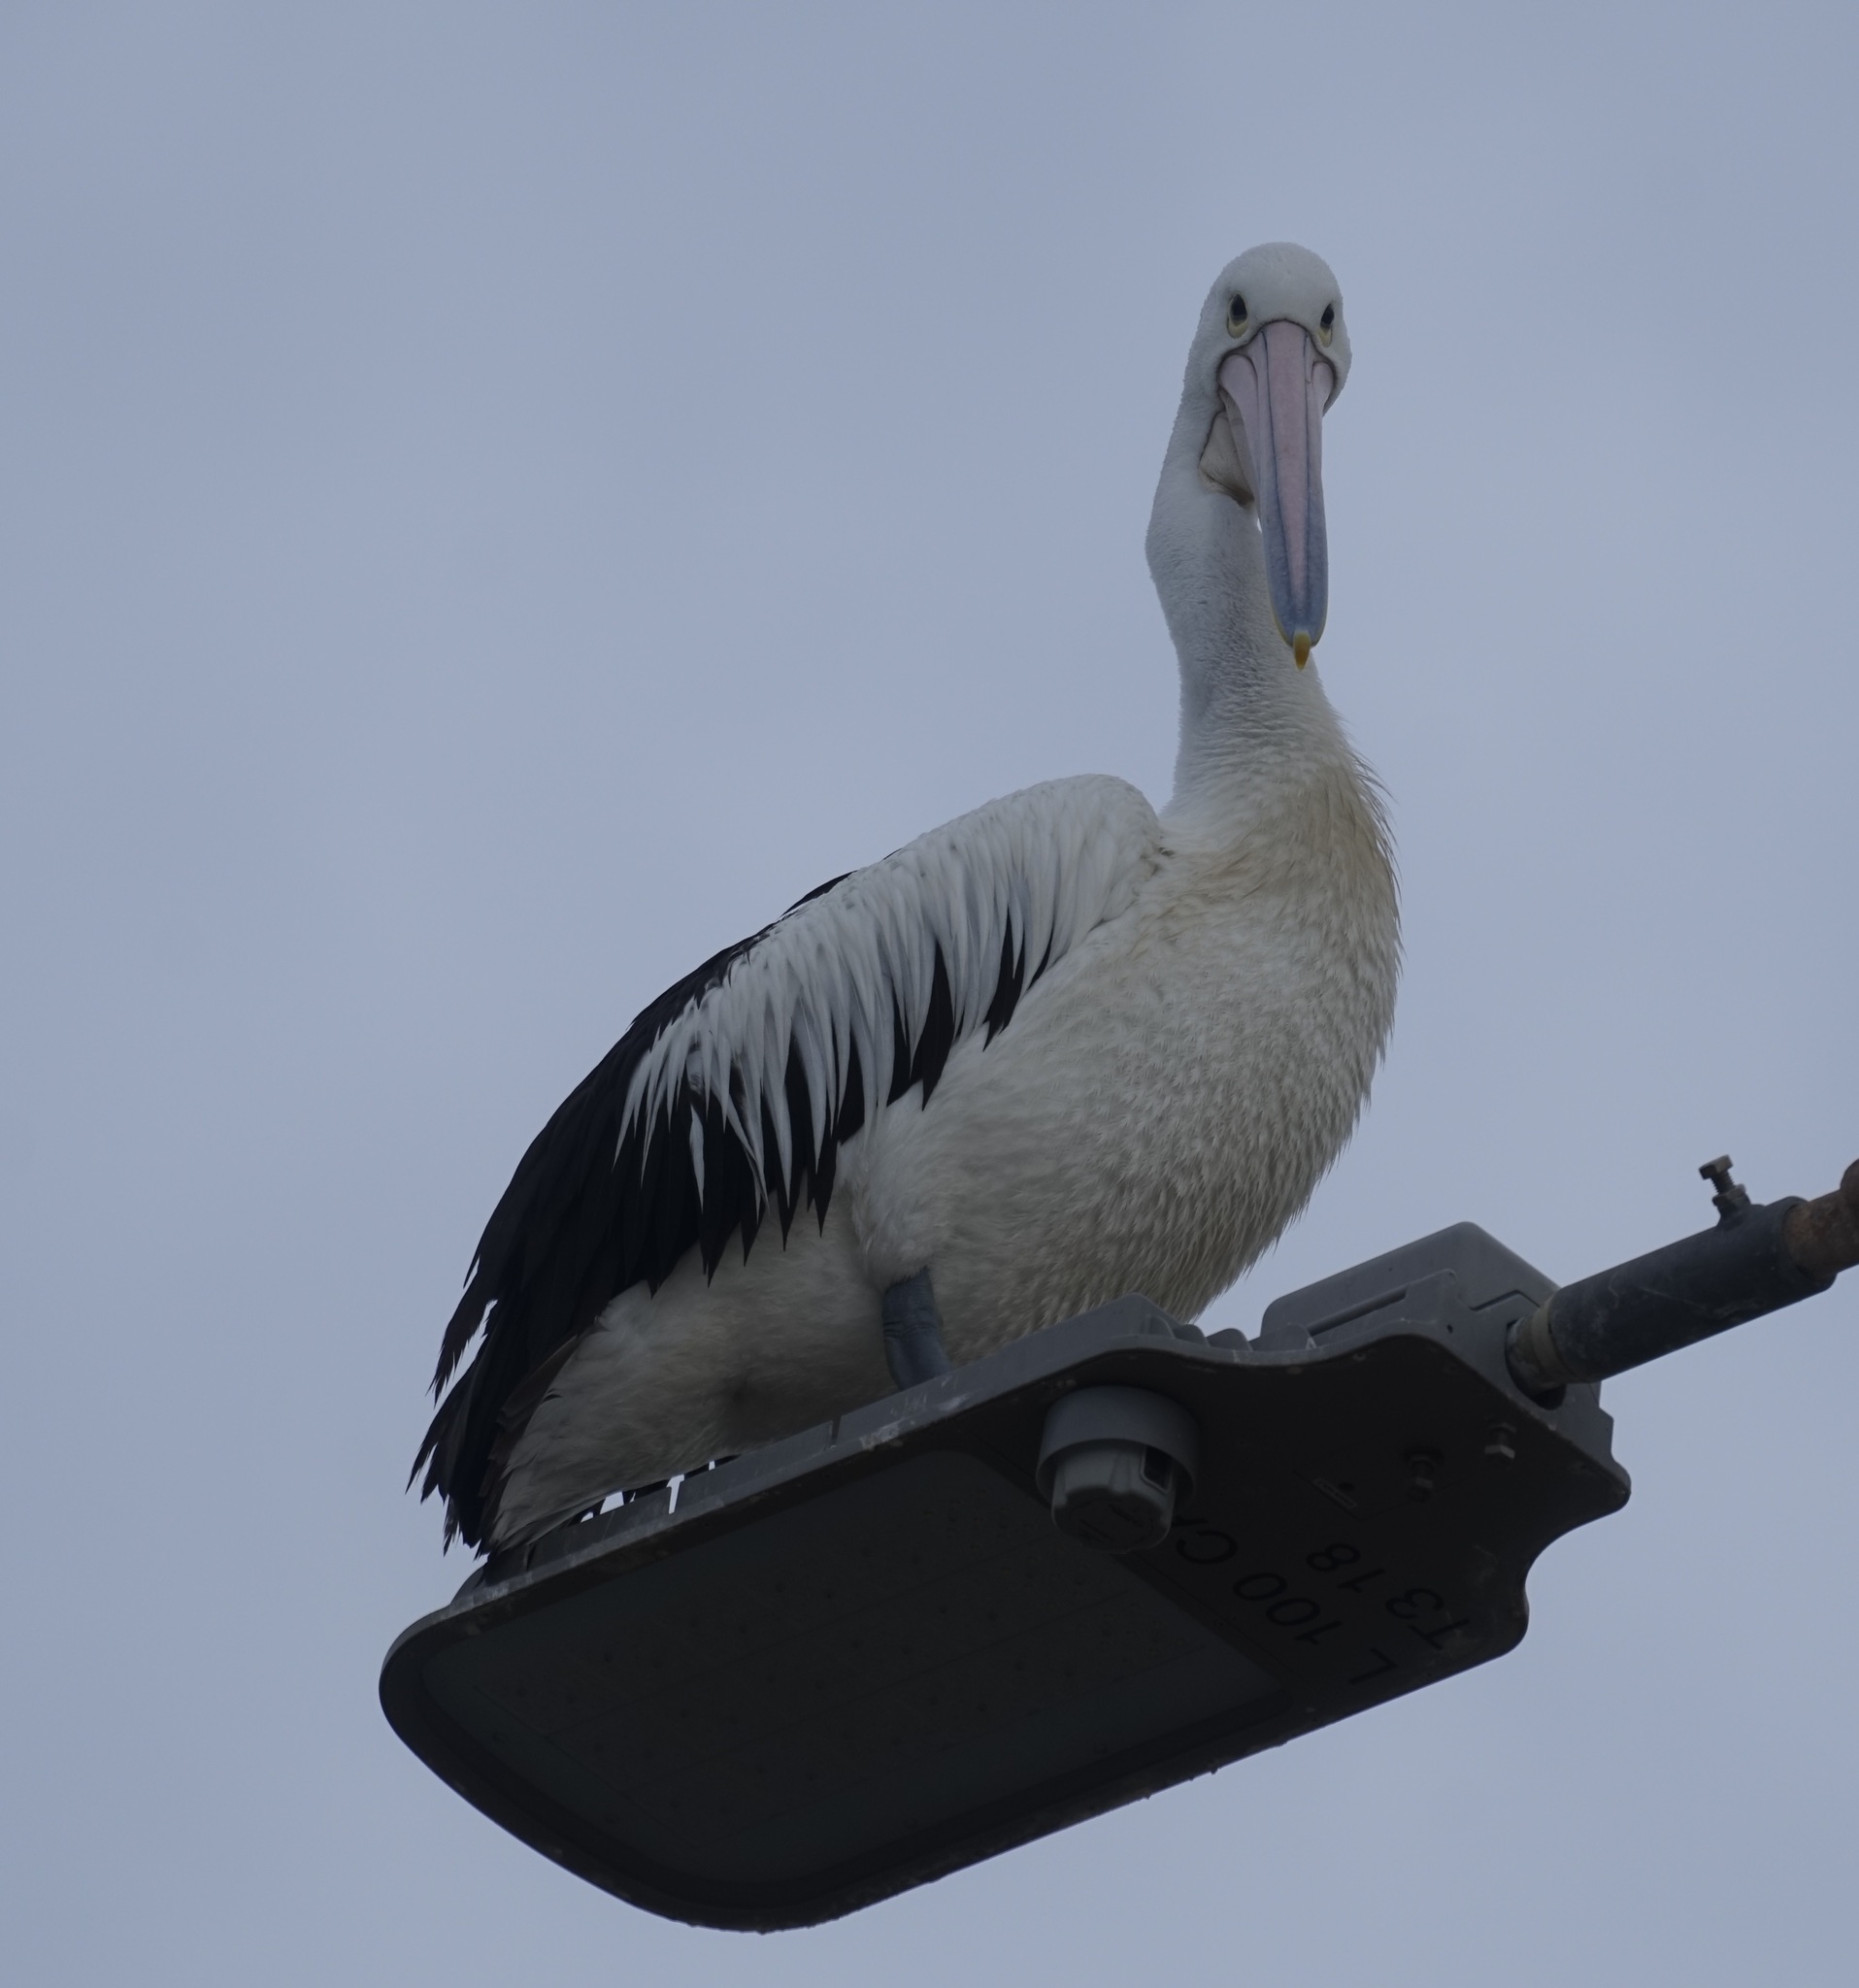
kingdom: Animalia
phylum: Chordata
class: Aves
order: Pelecaniformes
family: Pelecanidae
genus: Pelecanus
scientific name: Pelecanus conspicillatus
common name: Australian pelican
